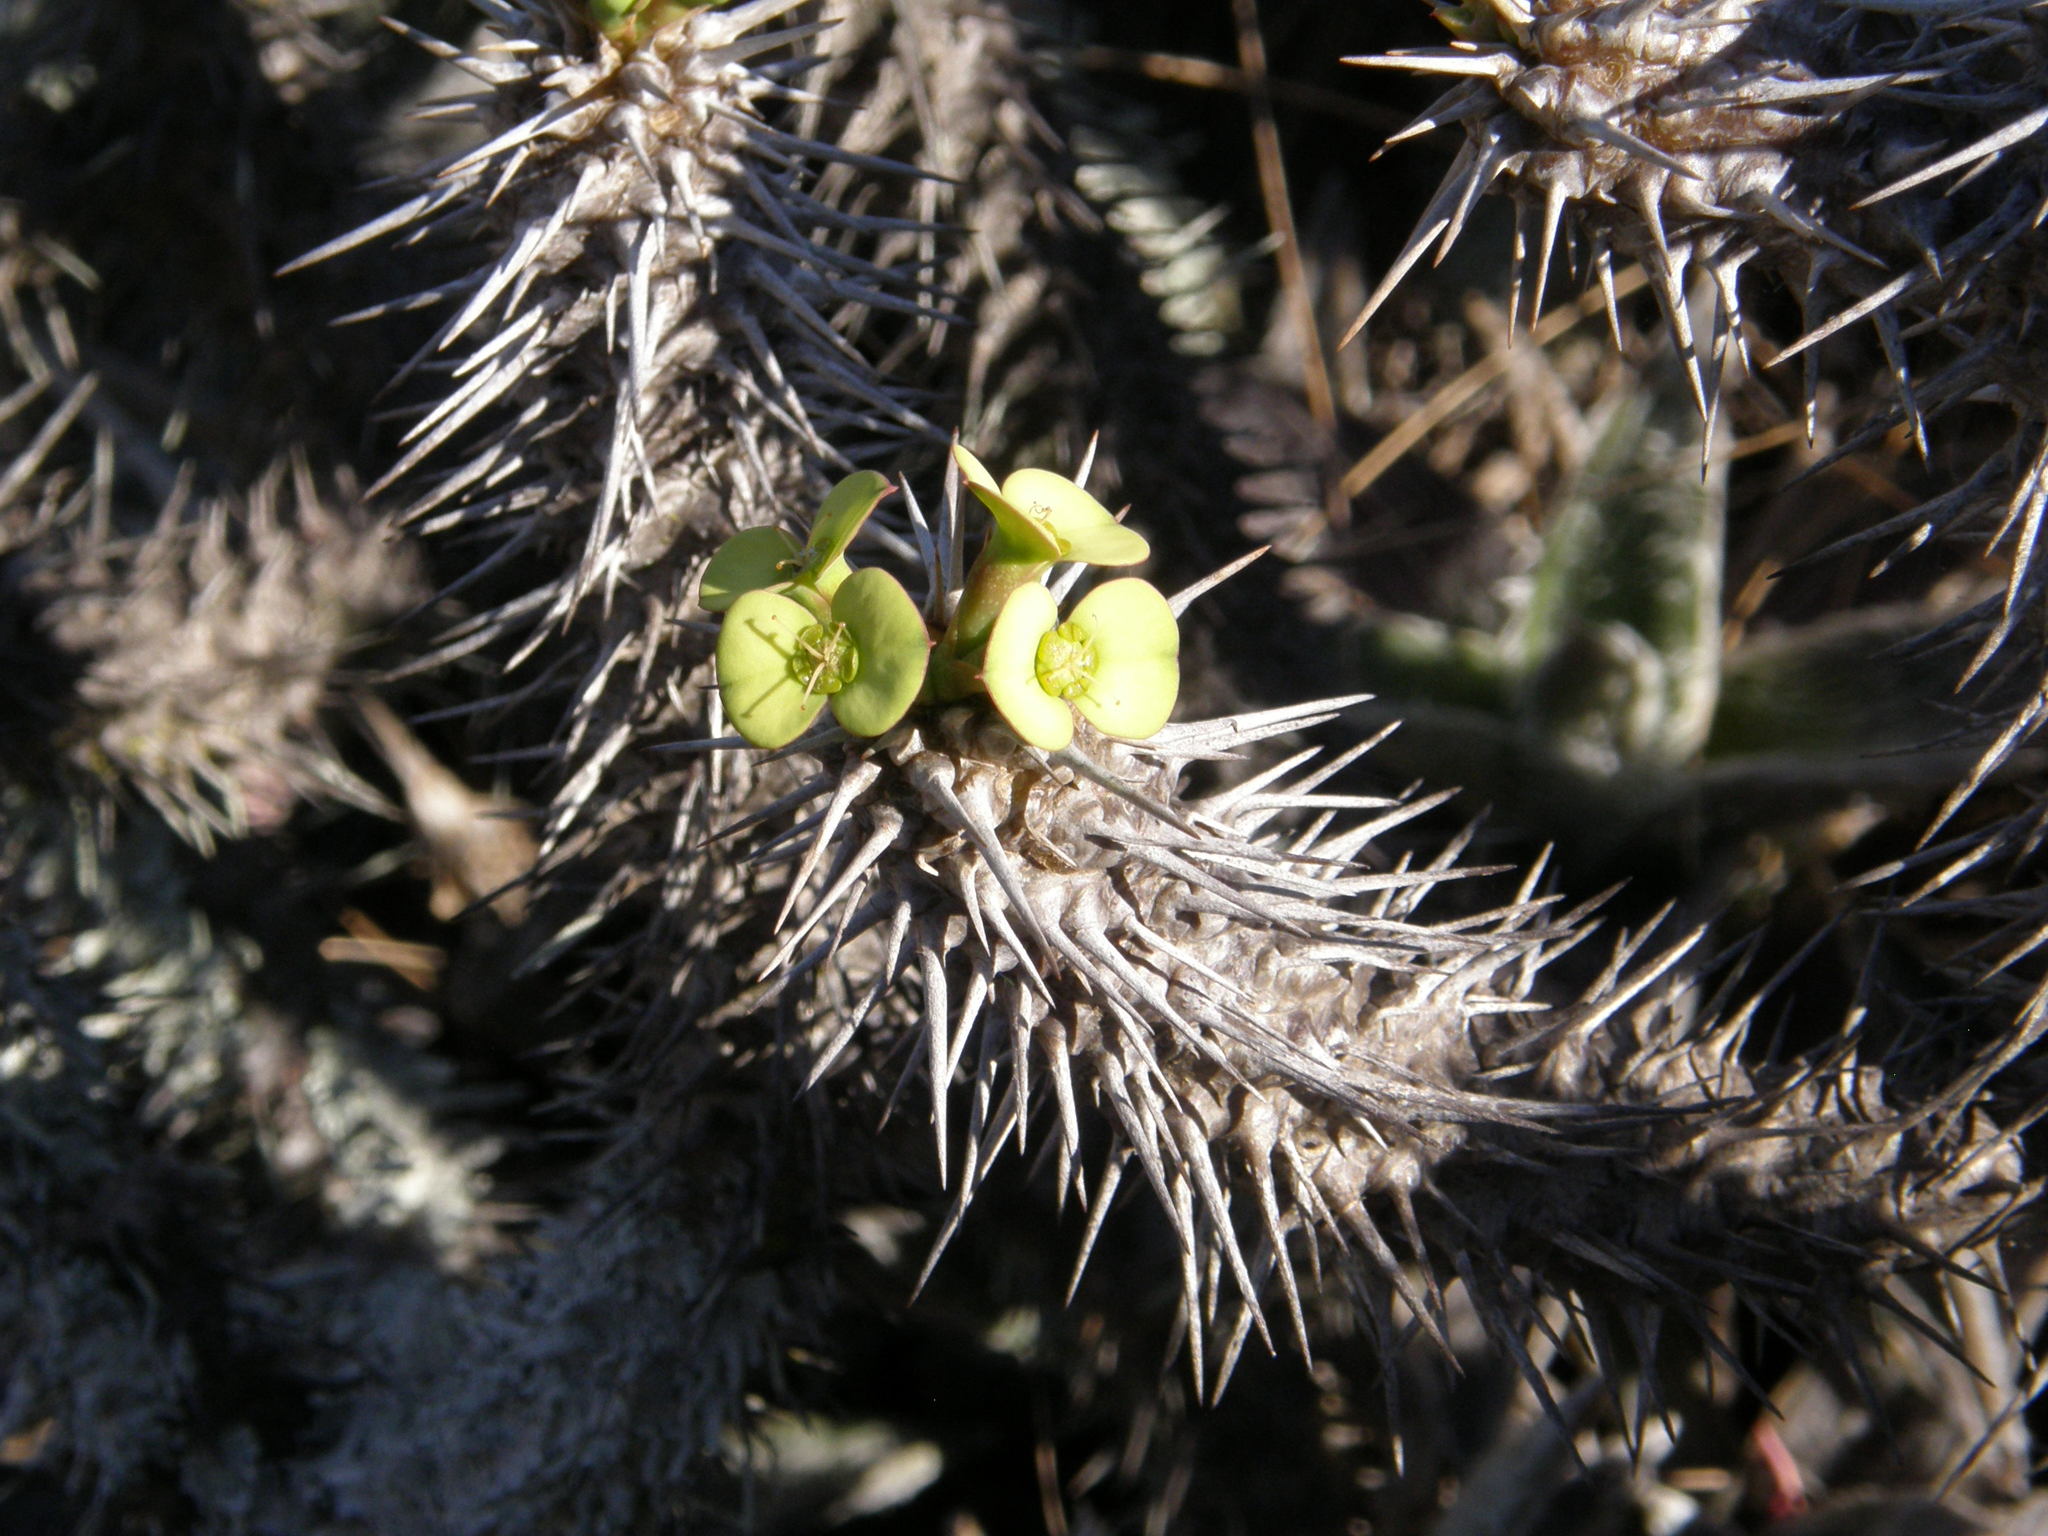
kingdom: Plantae
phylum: Tracheophyta
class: Magnoliopsida
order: Malpighiales
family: Euphorbiaceae
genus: Euphorbia
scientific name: Euphorbia duranii
